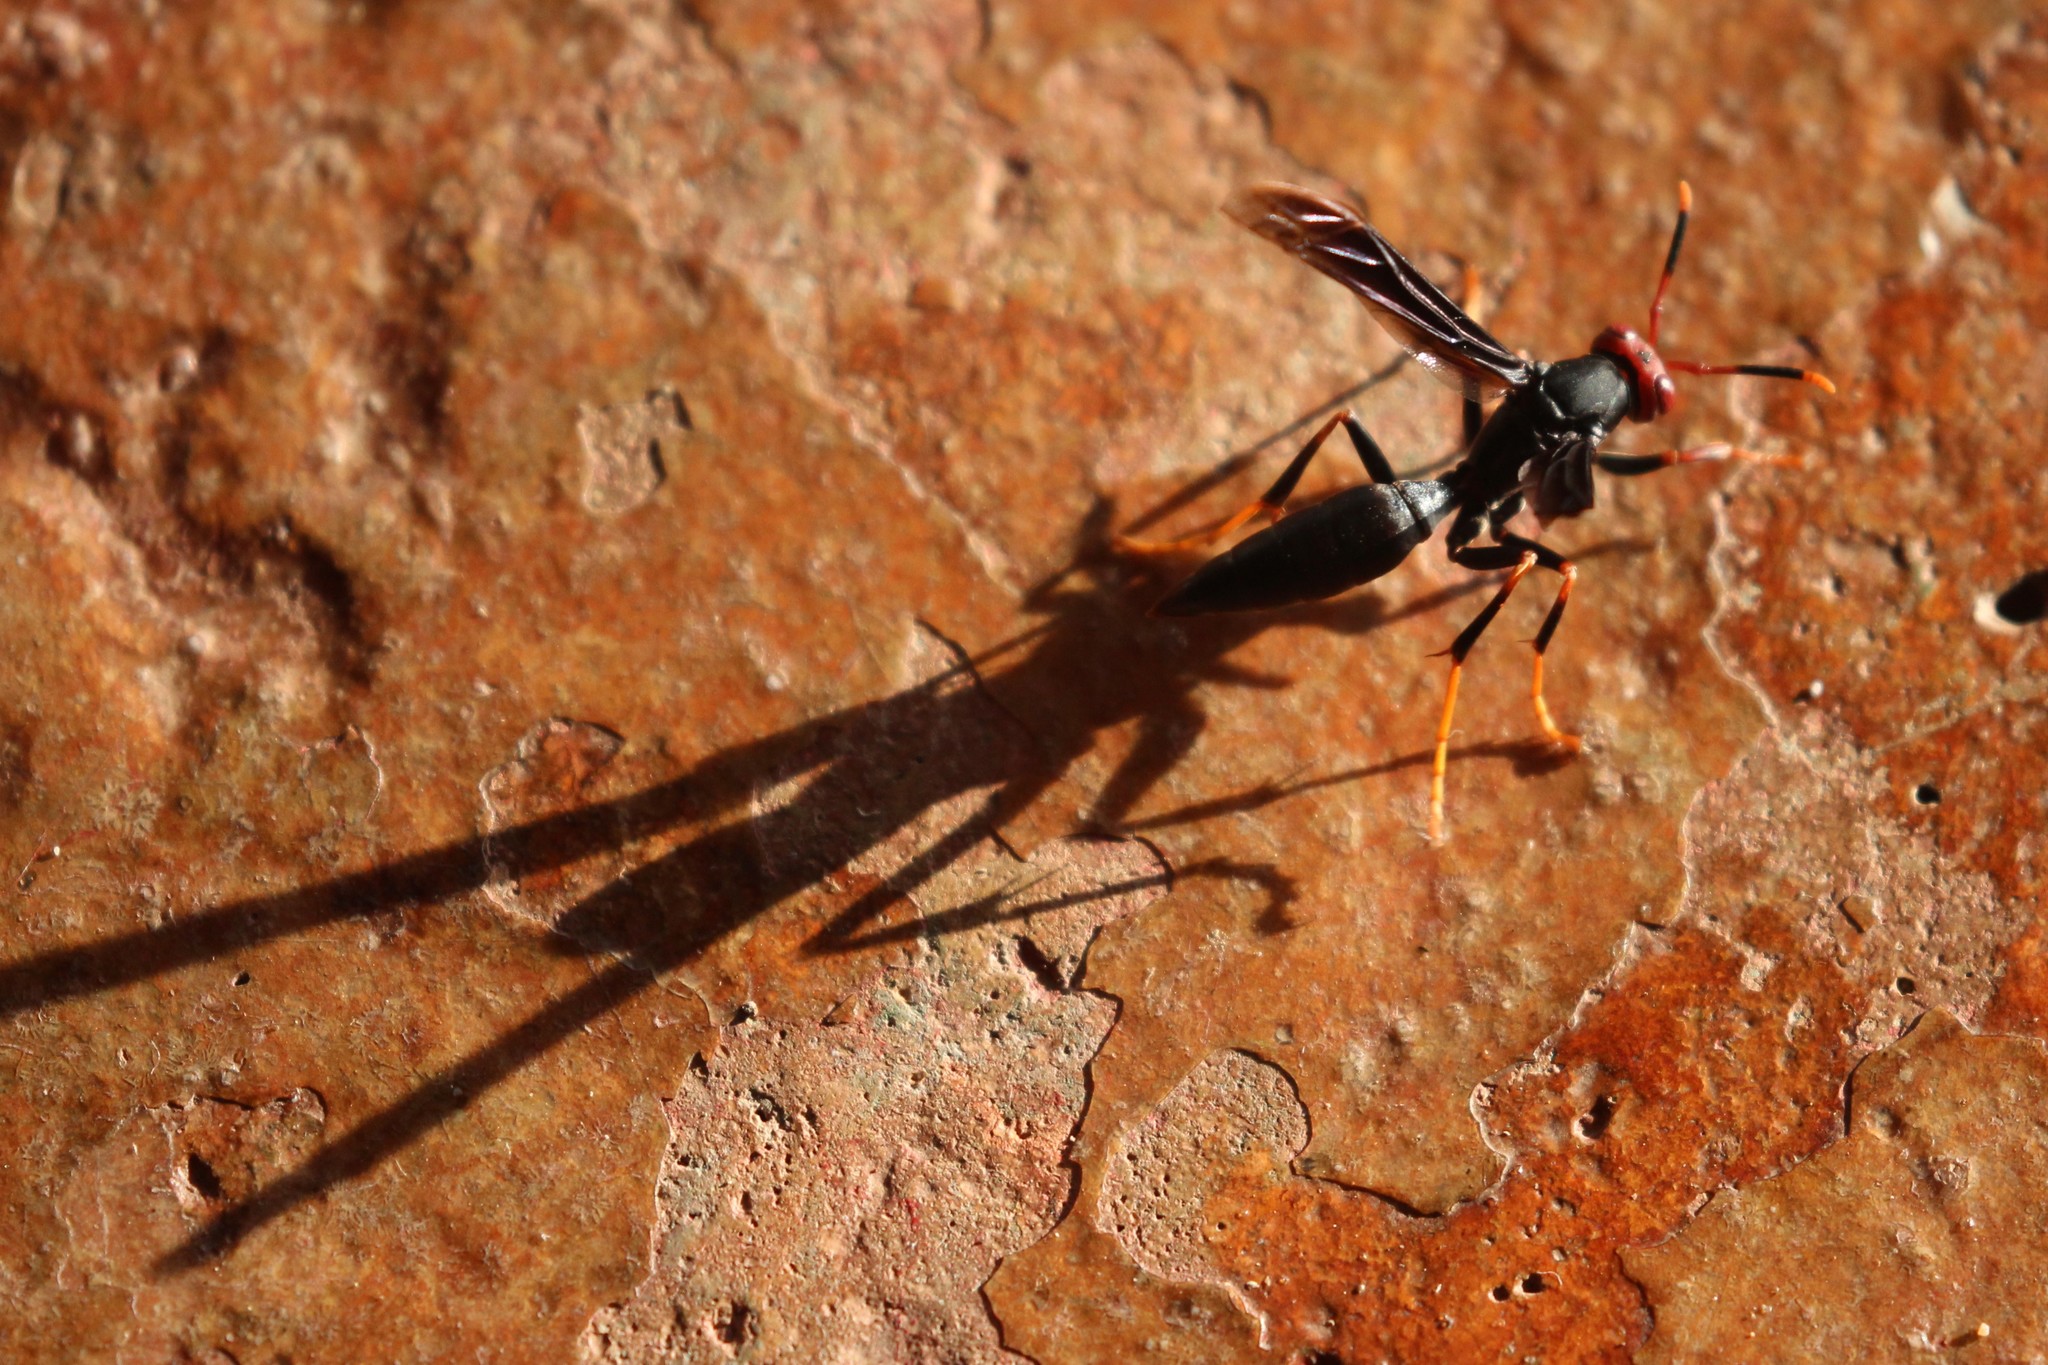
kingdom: Animalia
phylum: Arthropoda
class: Insecta
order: Hymenoptera
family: Eumenidae
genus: Polistes
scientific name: Polistes erythrocephalus
